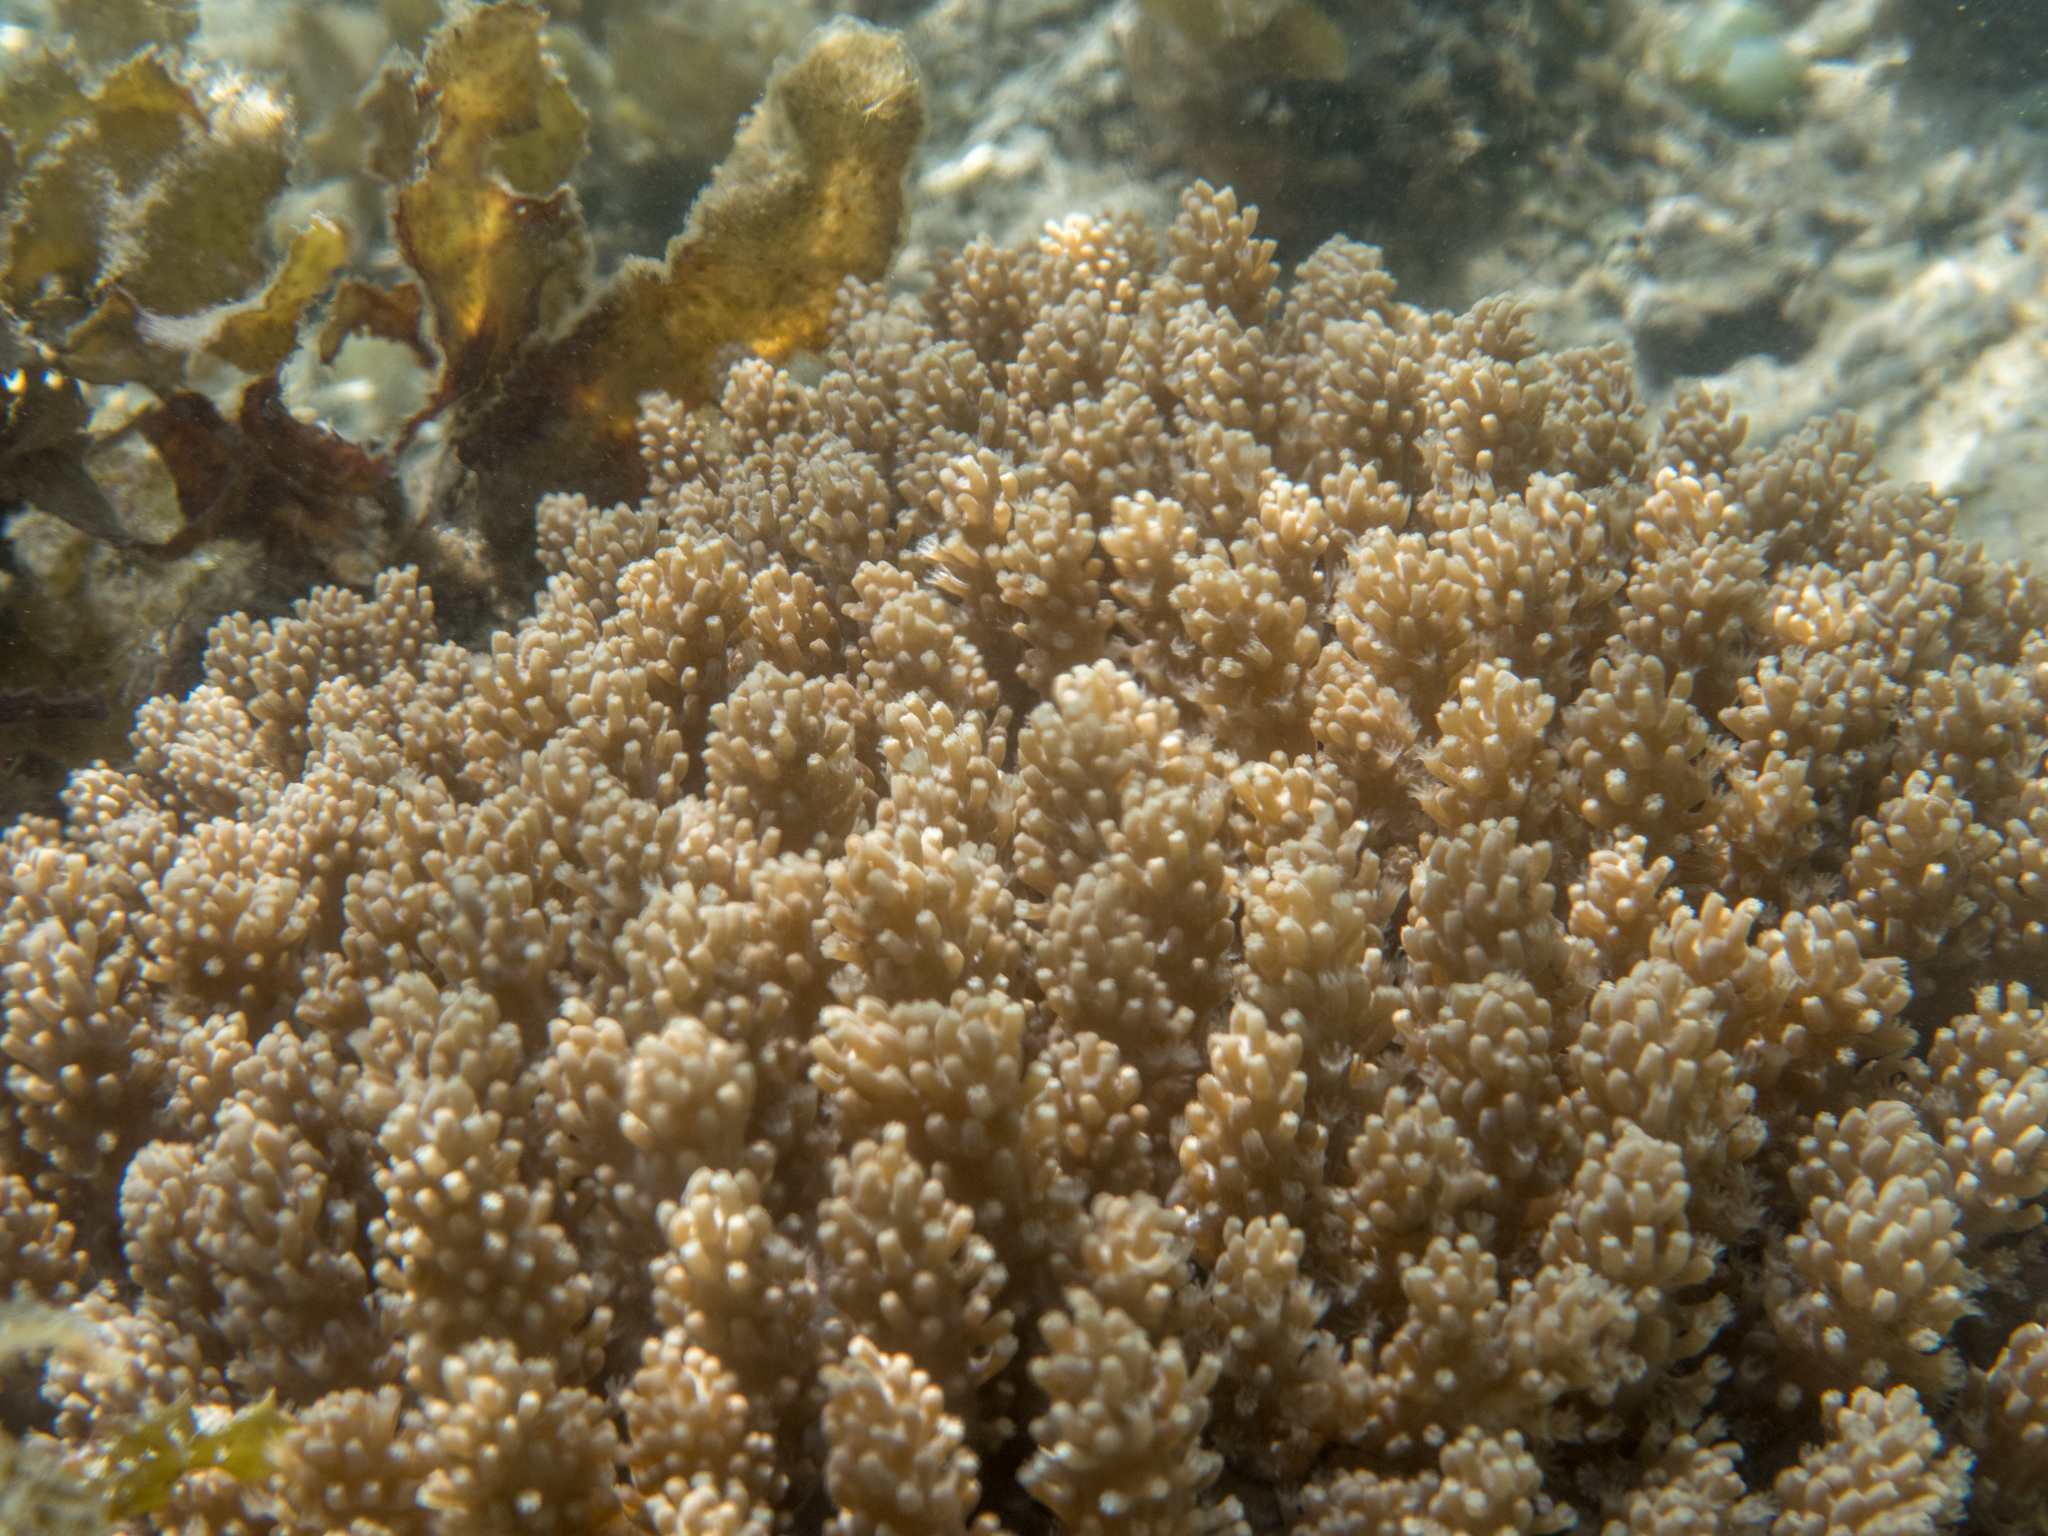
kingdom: Animalia
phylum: Cnidaria
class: Anthozoa
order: Malacalcyonacea
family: Xeniidae
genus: Sympodium
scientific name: Sympodium gibbaeum
